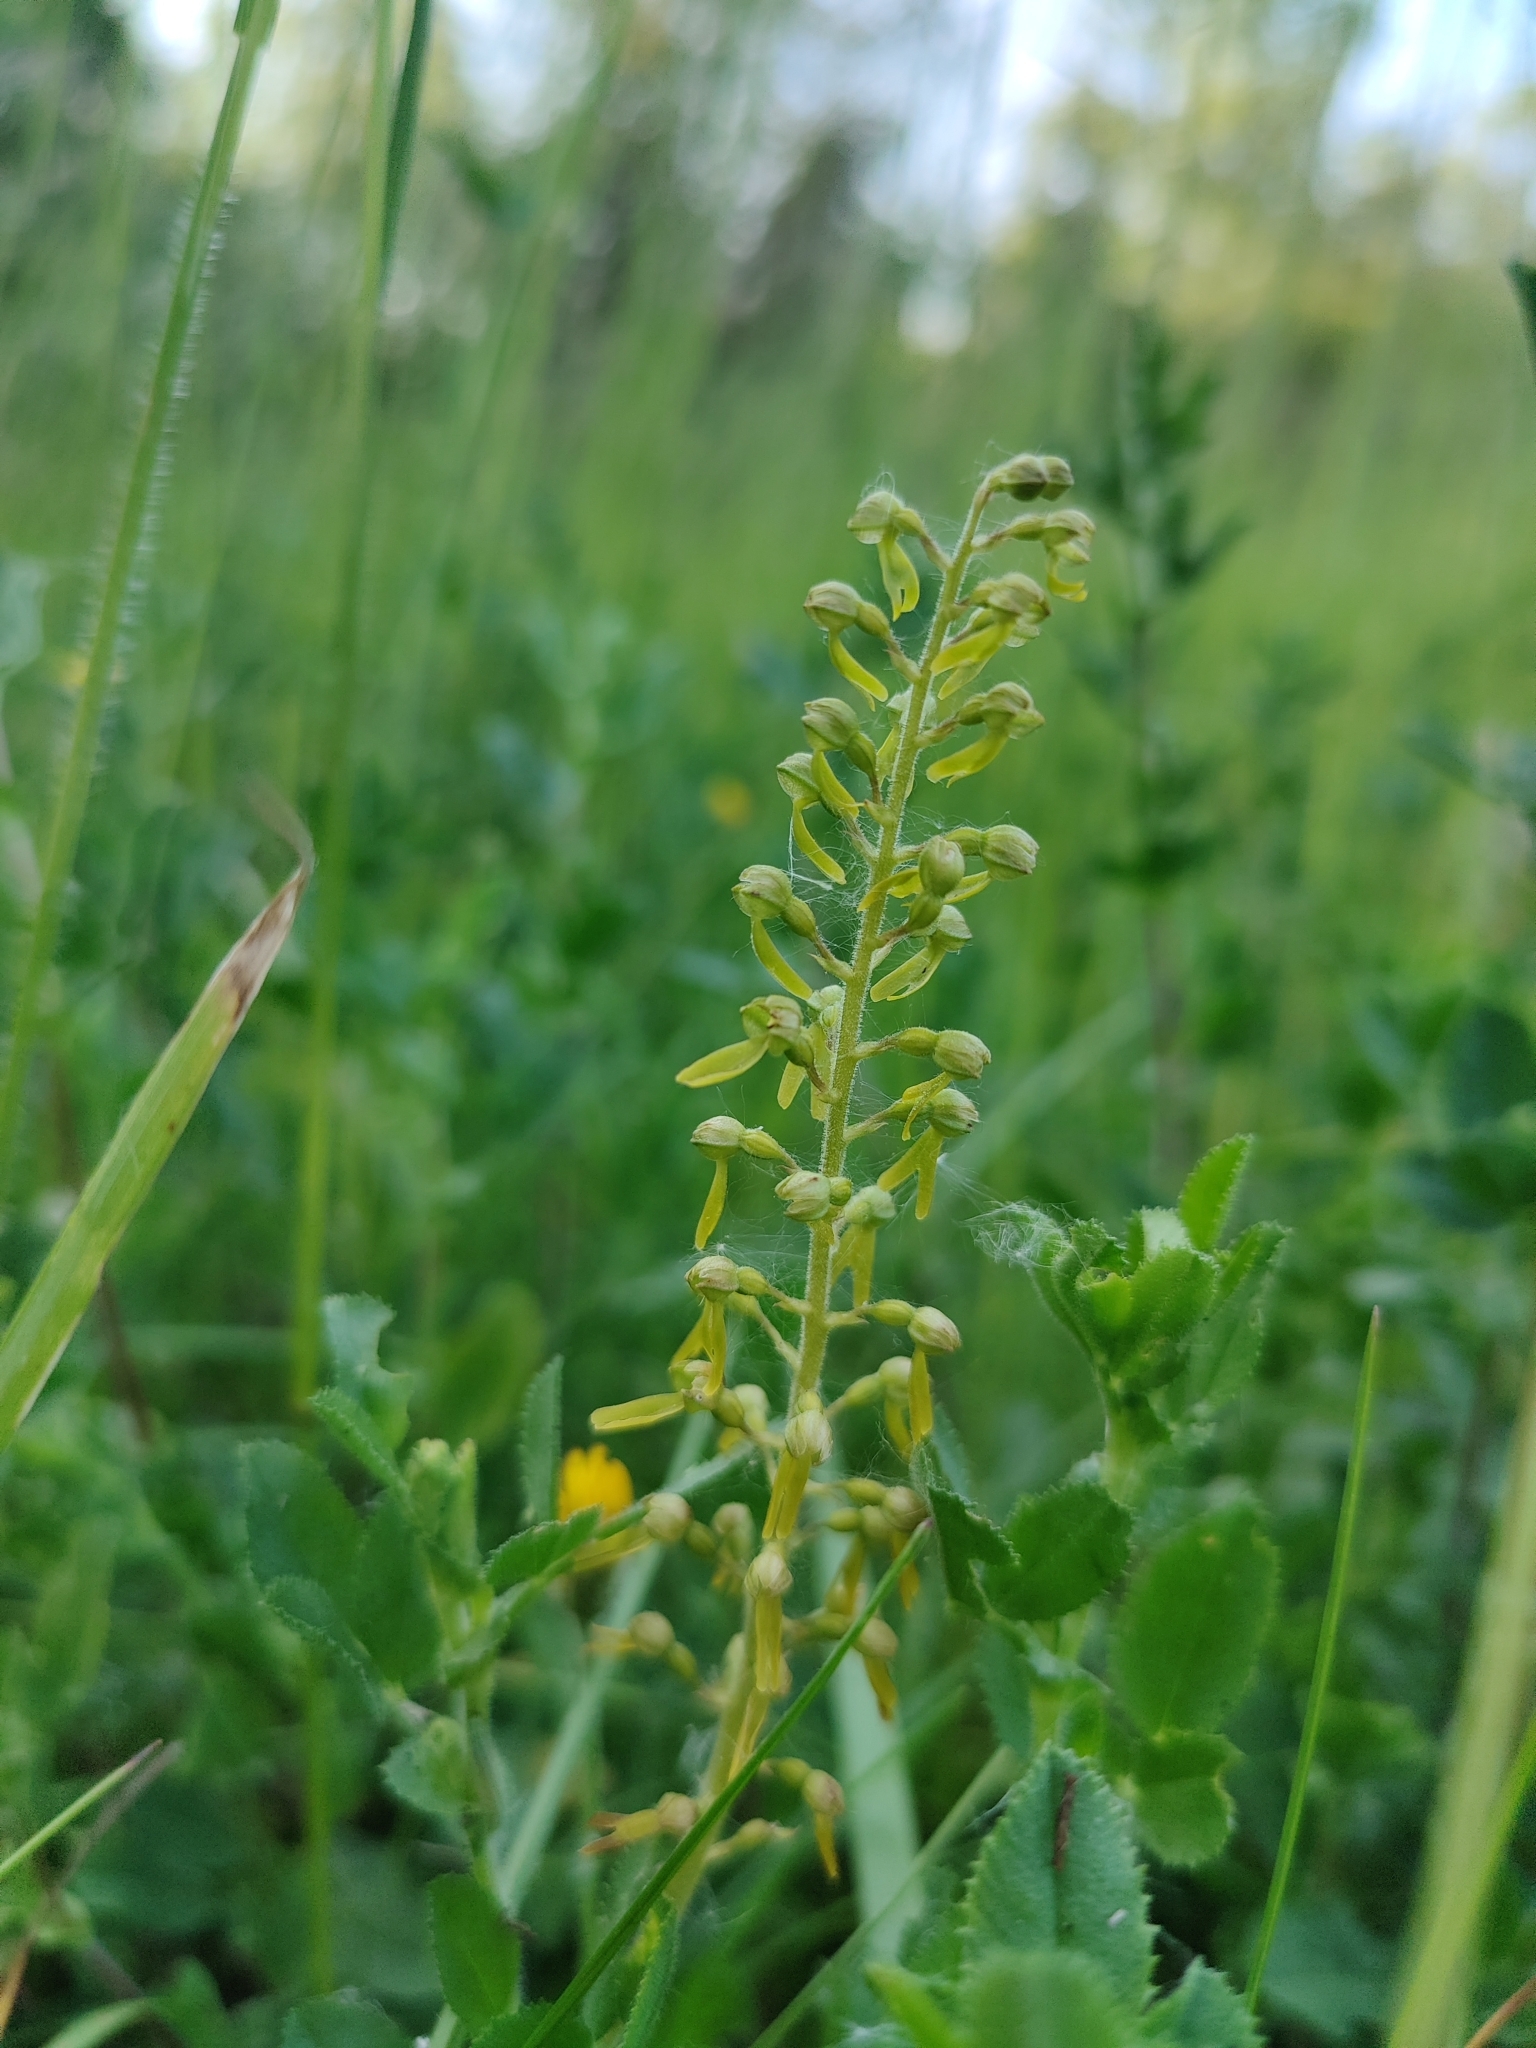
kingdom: Plantae
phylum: Tracheophyta
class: Liliopsida
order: Asparagales
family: Orchidaceae
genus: Neottia
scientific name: Neottia ovata
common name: Common twayblade
